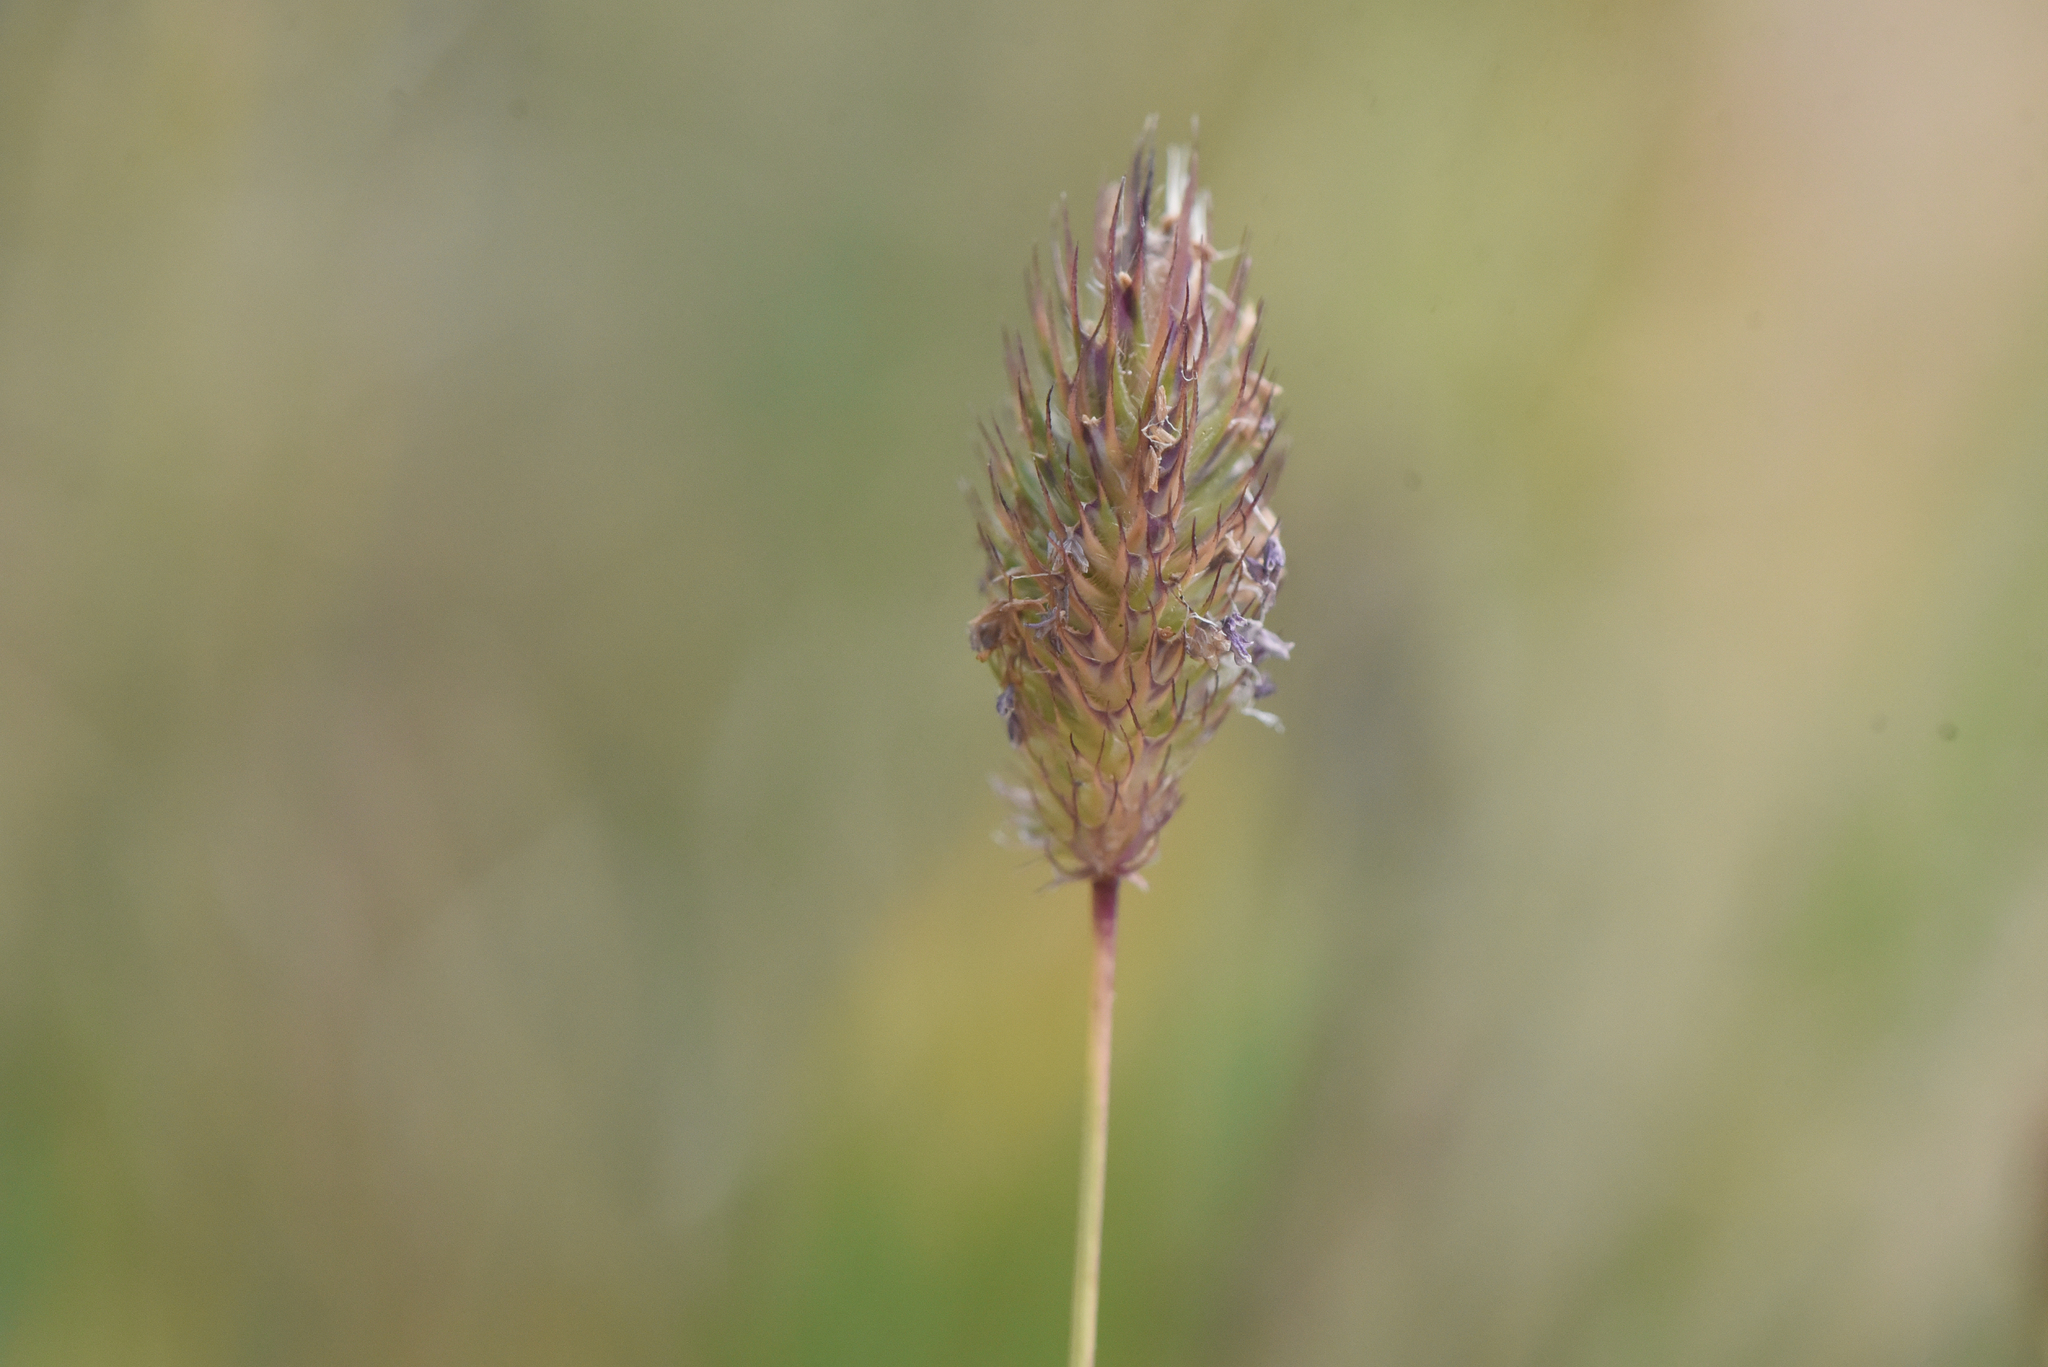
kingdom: Plantae
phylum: Tracheophyta
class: Liliopsida
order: Poales
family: Poaceae
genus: Phleum
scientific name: Phleum alpinum
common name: Alpine cat's-tail
